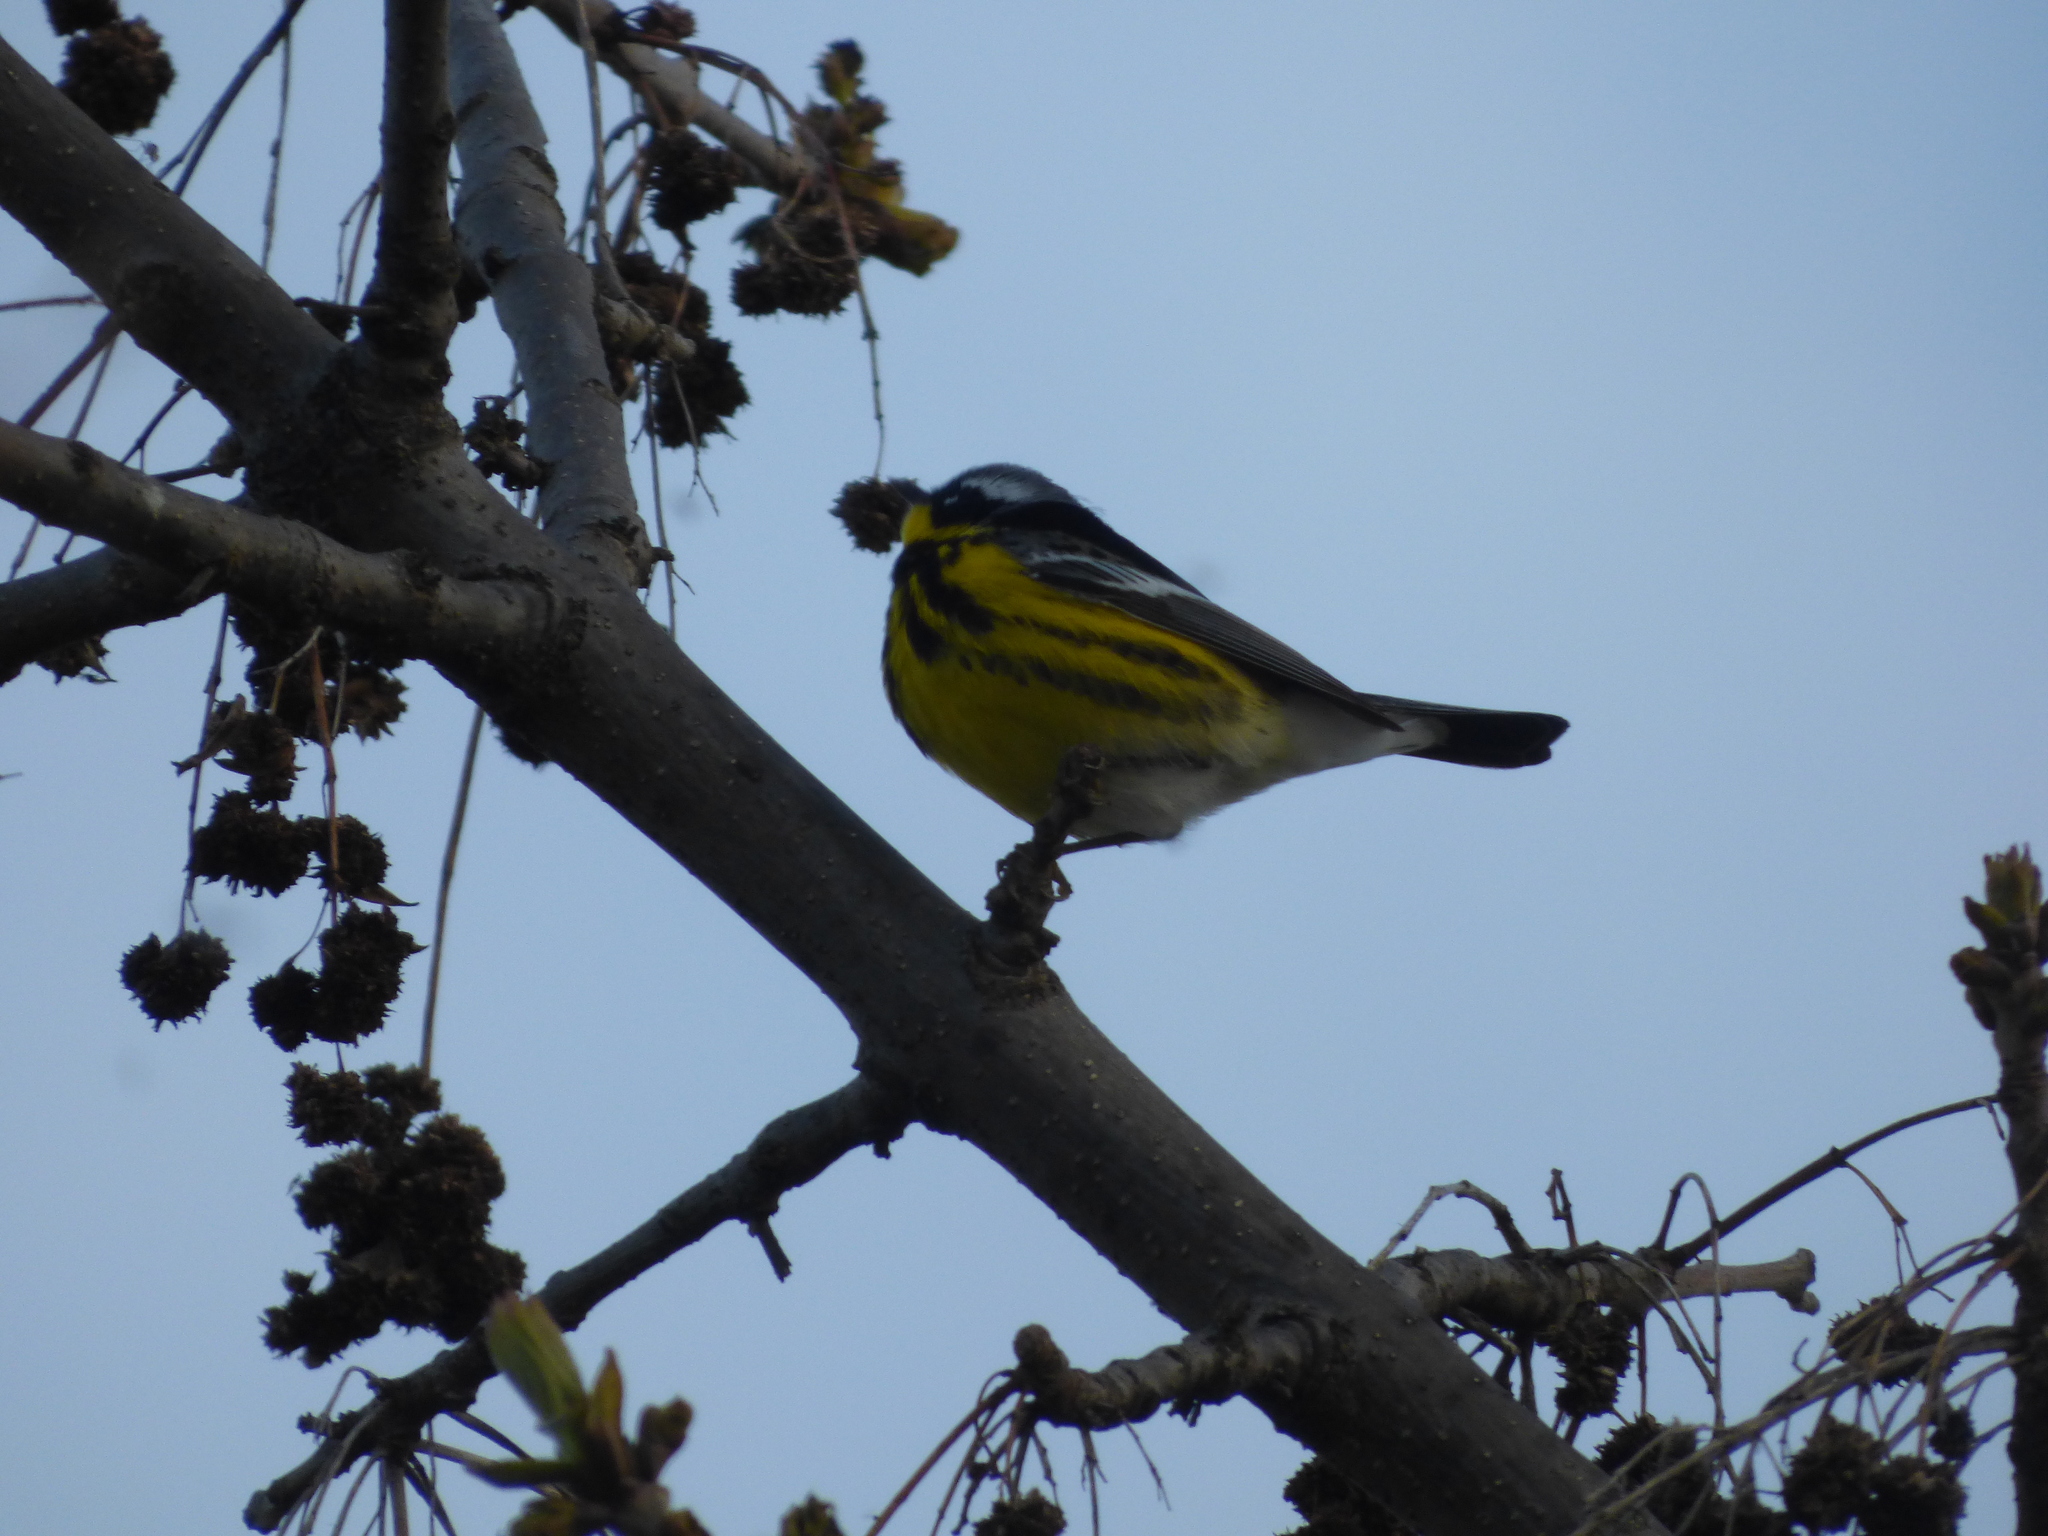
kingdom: Animalia
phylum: Chordata
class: Aves
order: Passeriformes
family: Parulidae
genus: Setophaga
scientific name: Setophaga magnolia
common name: Magnolia warbler
